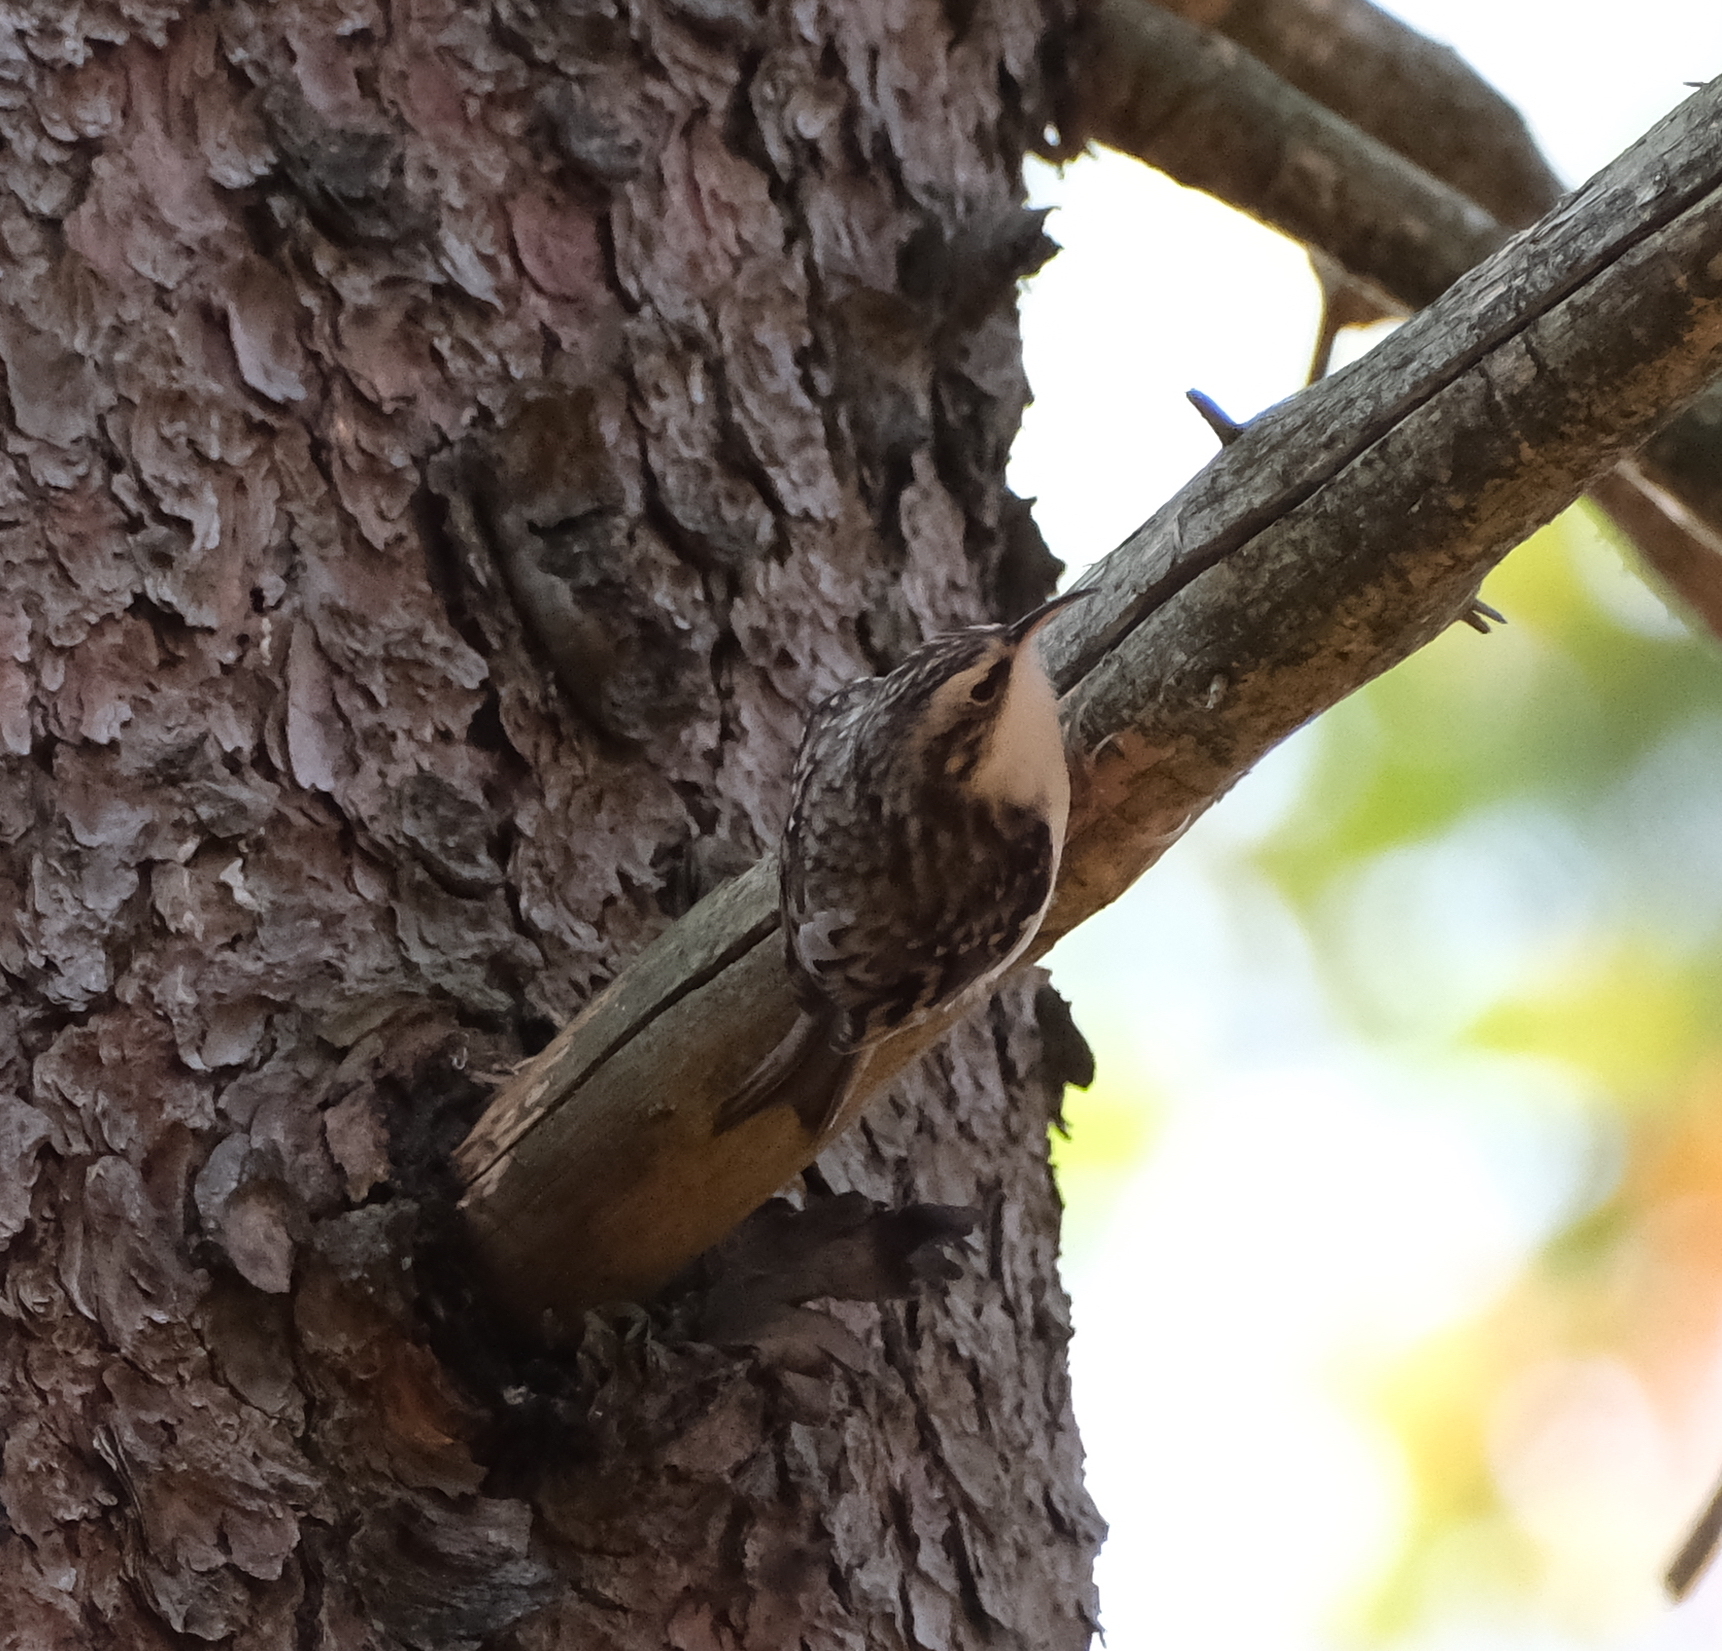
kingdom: Animalia
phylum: Chordata
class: Aves
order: Passeriformes
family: Certhiidae
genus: Certhia
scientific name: Certhia familiaris
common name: Eurasian treecreeper
